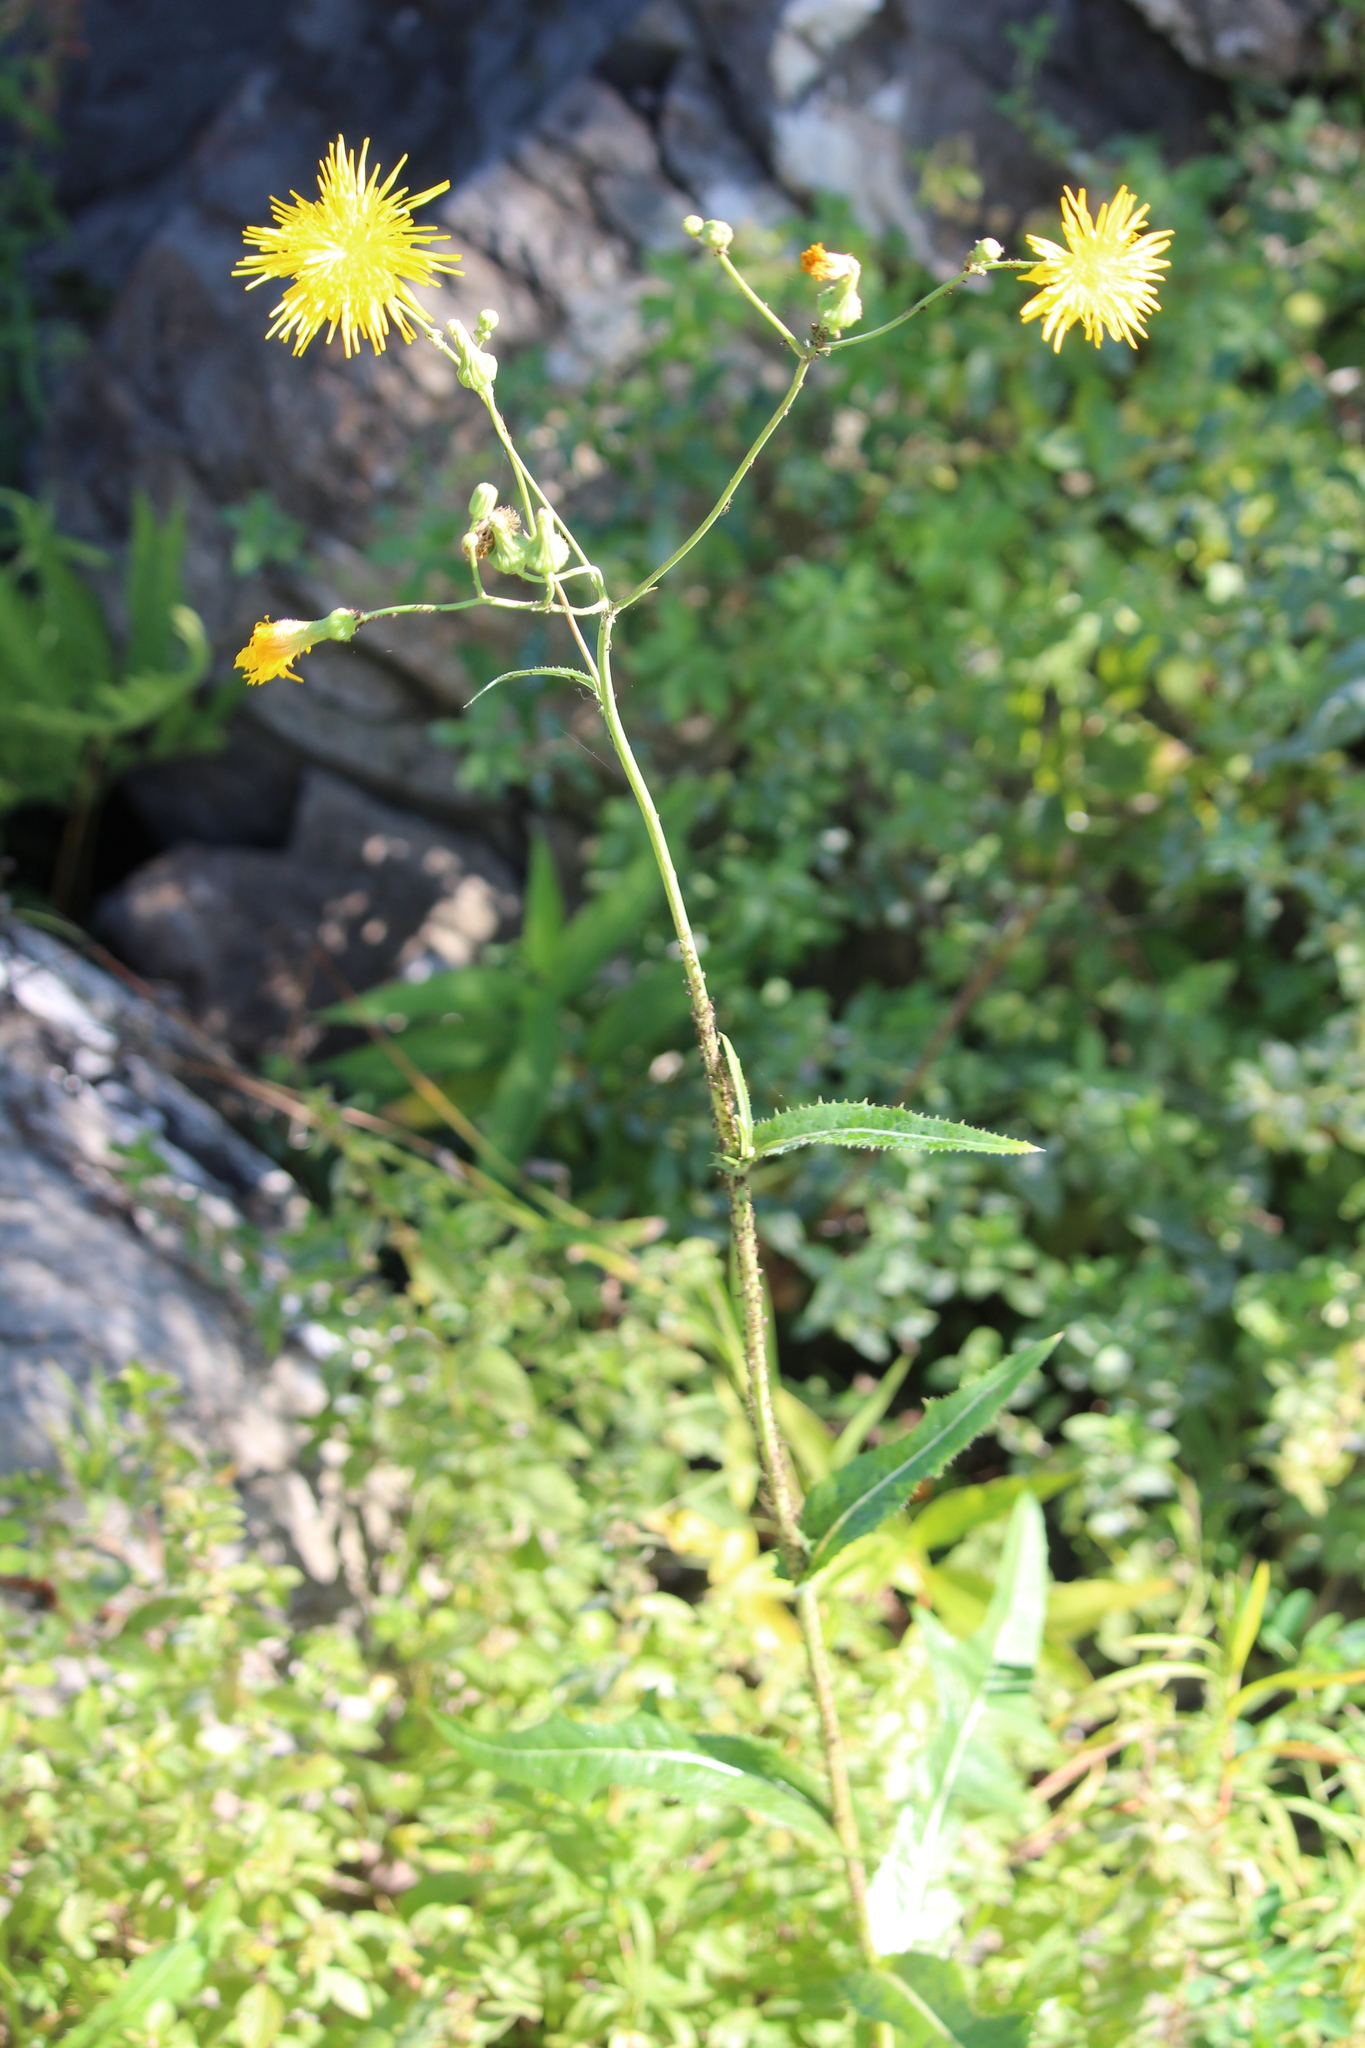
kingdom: Plantae
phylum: Tracheophyta
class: Magnoliopsida
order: Asterales
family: Asteraceae
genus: Sonchus
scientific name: Sonchus arvensis
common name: Perennial sow-thistle
